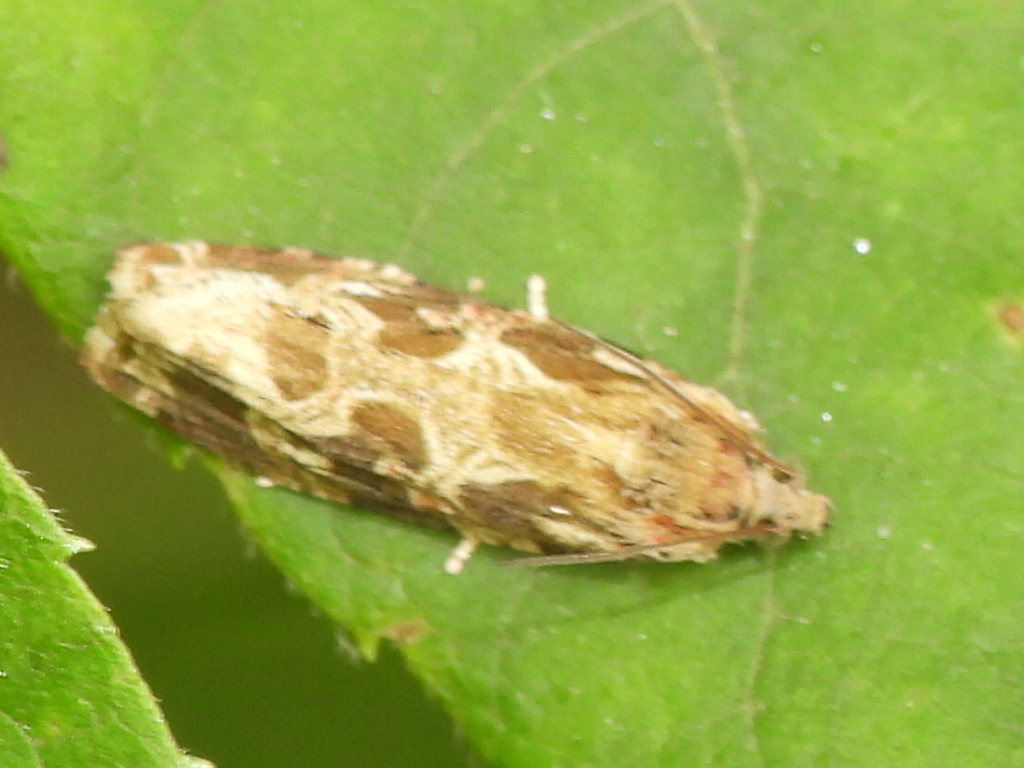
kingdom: Animalia
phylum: Arthropoda
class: Insecta
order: Lepidoptera
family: Tortricidae
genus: Phaecasiophora
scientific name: Phaecasiophora confixana
